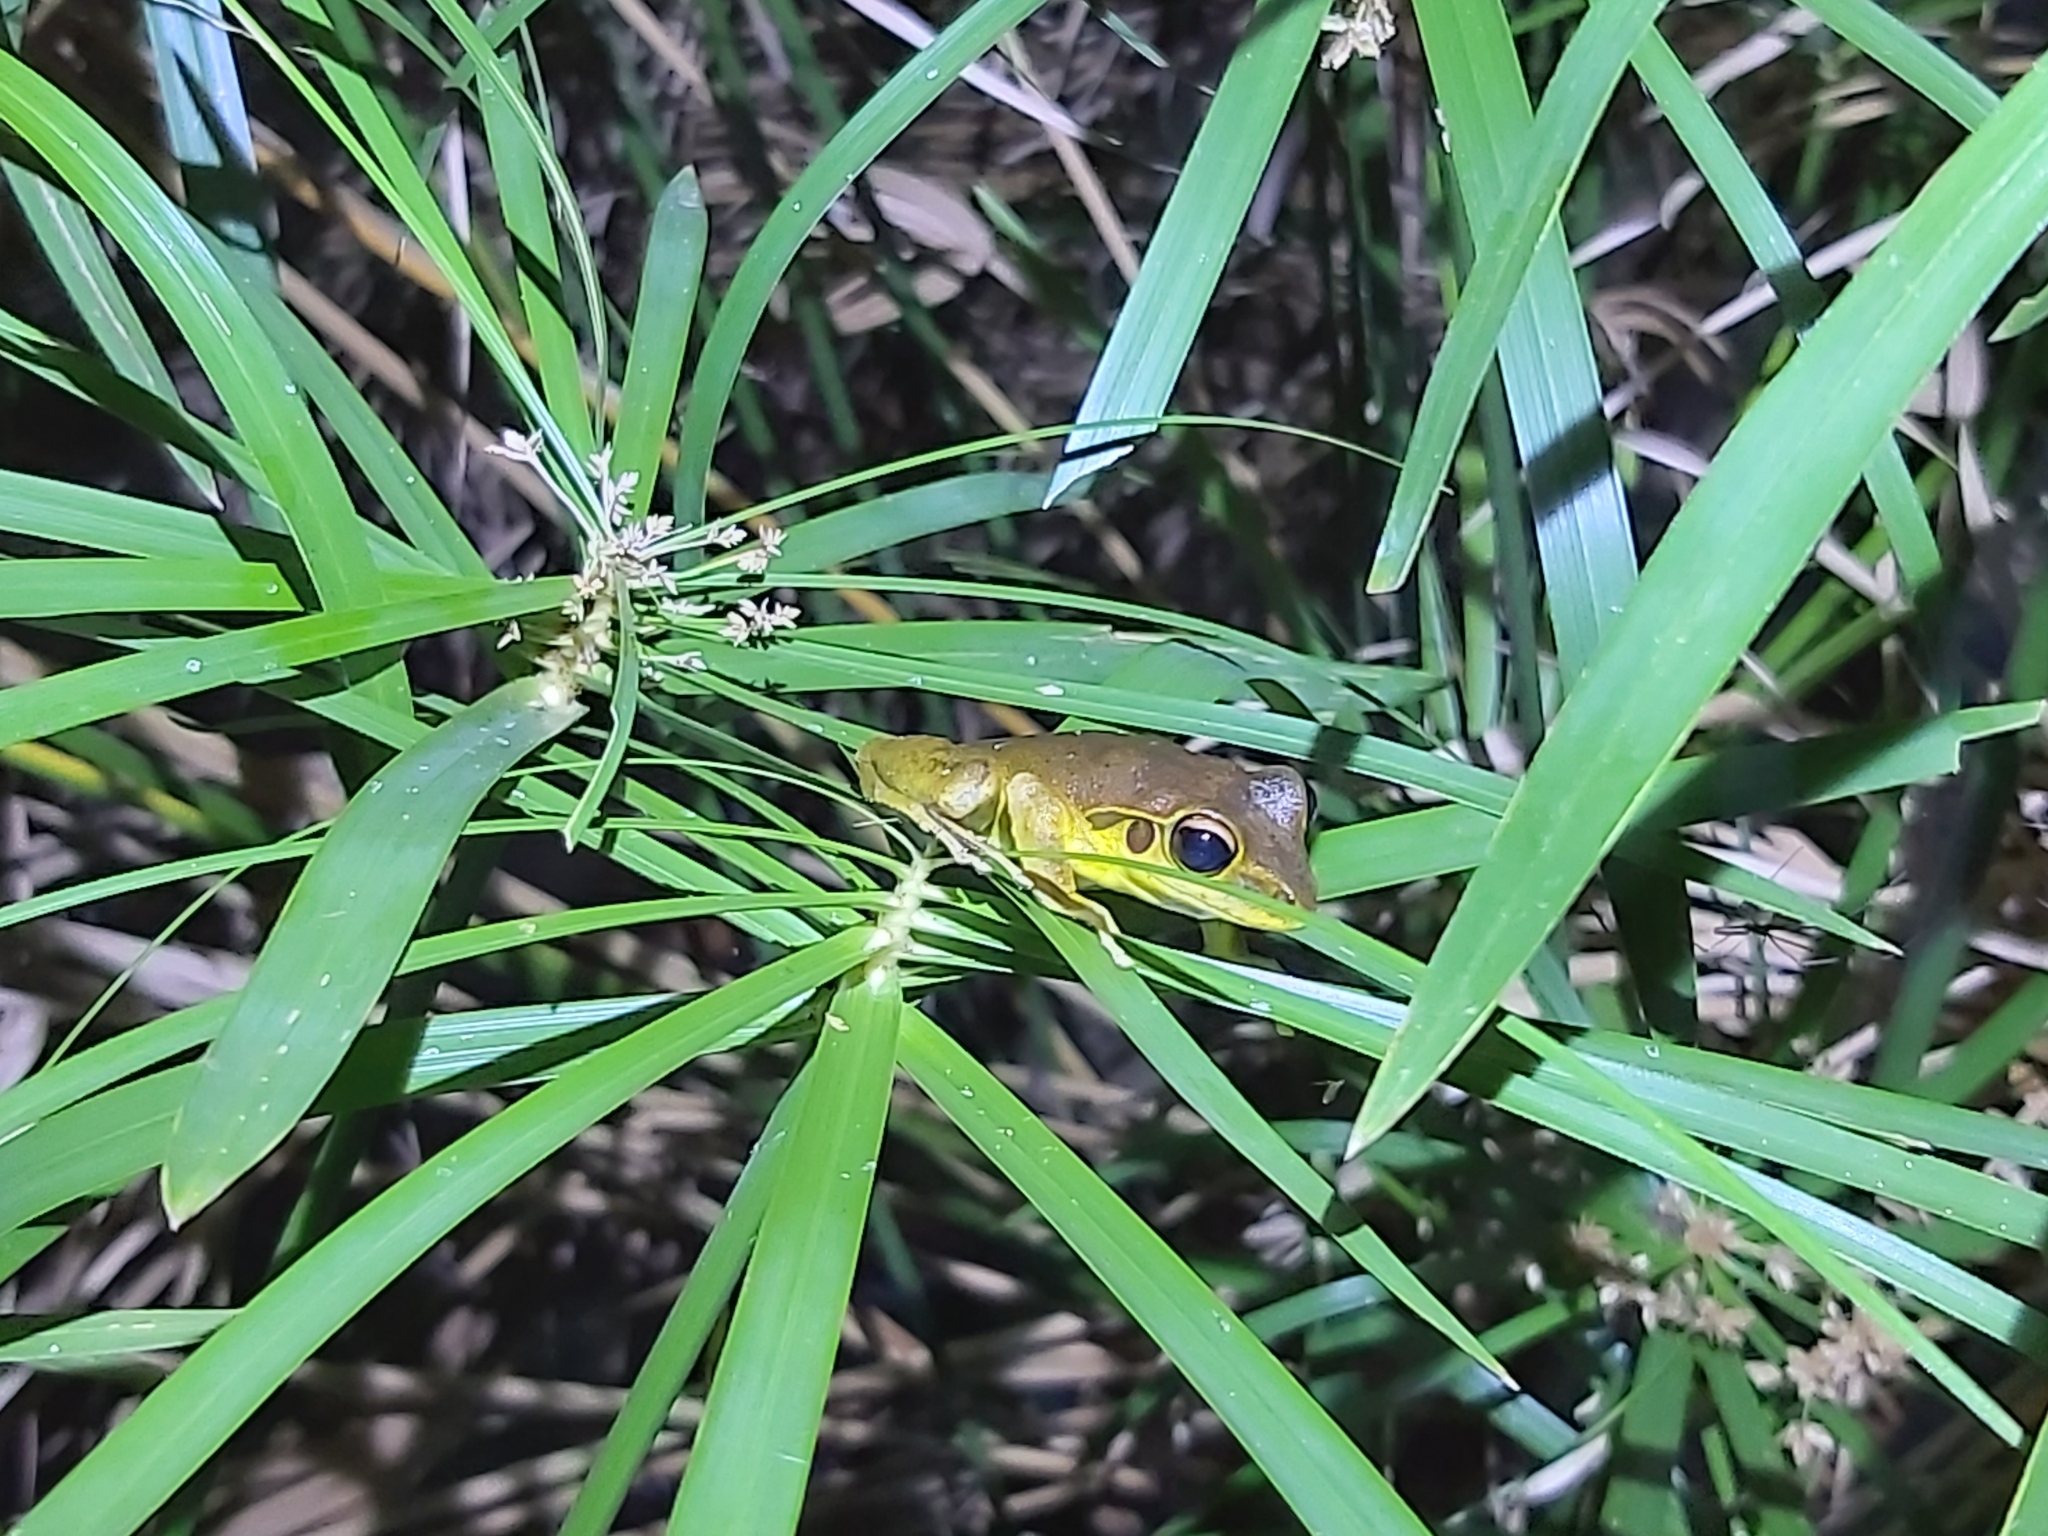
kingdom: Animalia
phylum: Chordata
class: Amphibia
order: Anura
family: Hylidae
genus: Ranoidea
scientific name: Ranoidea
